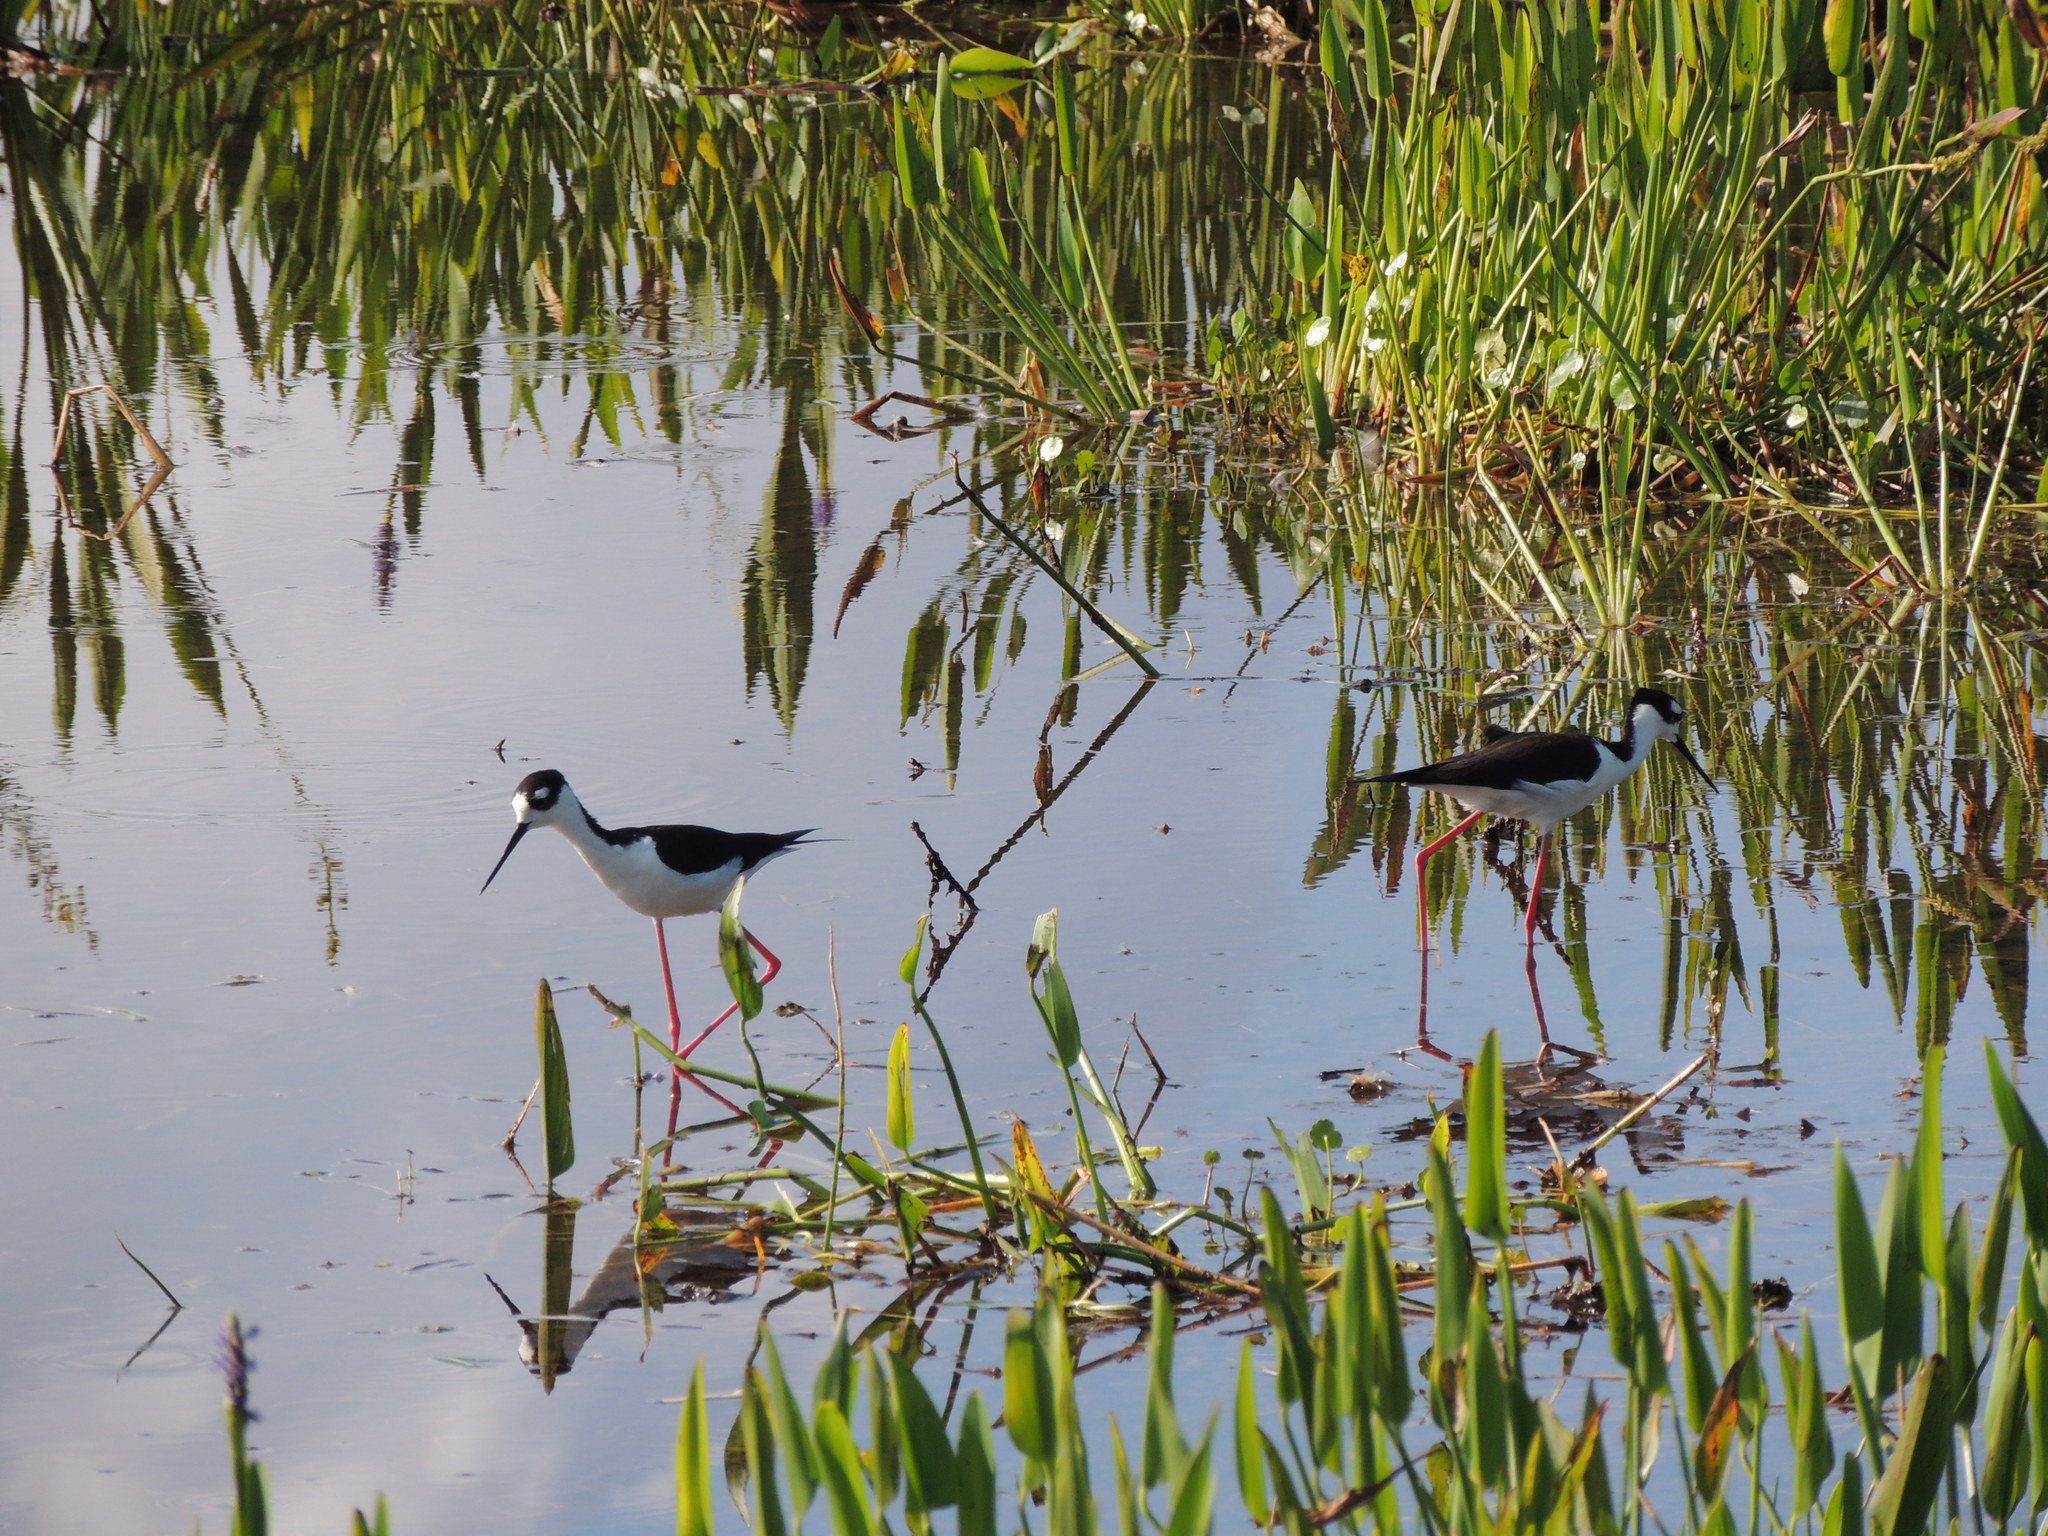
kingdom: Animalia
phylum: Chordata
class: Aves
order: Charadriiformes
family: Recurvirostridae
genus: Himantopus
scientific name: Himantopus mexicanus
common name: Black-necked stilt
